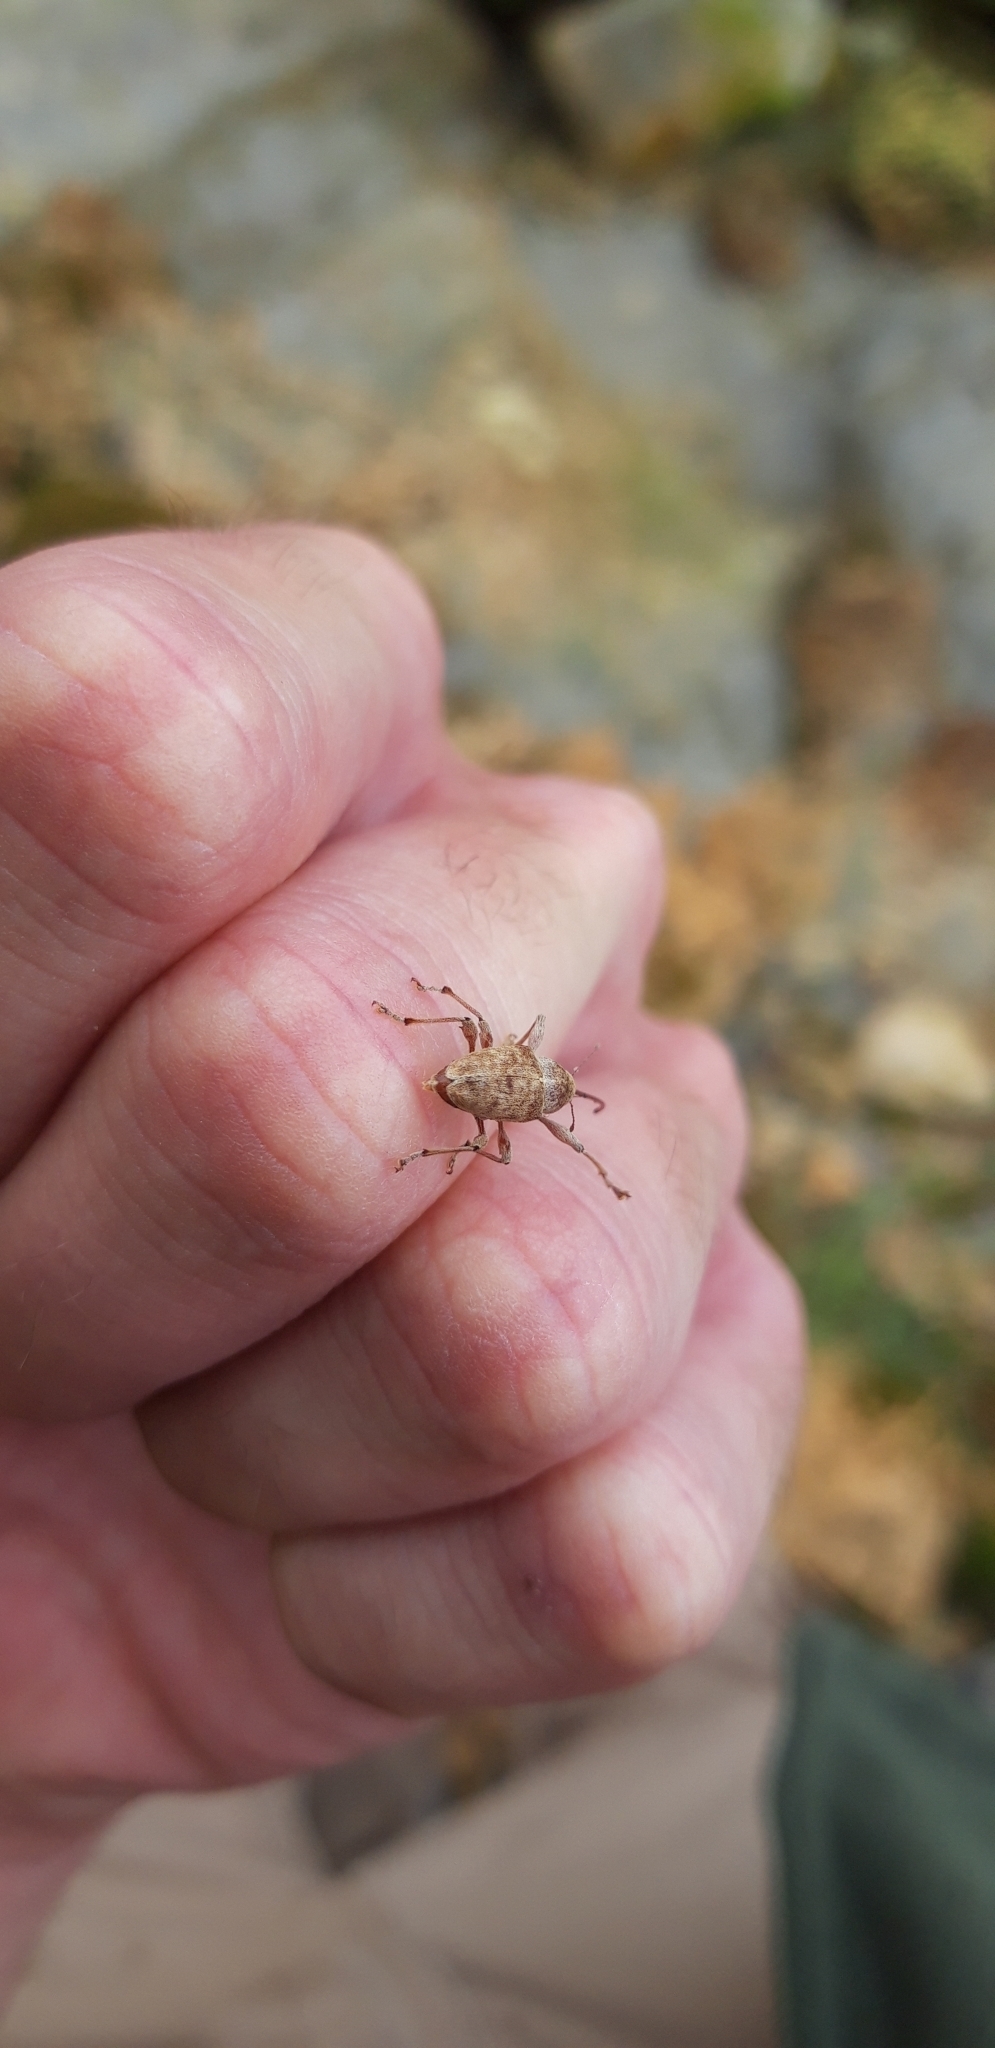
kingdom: Animalia
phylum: Arthropoda
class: Insecta
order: Coleoptera
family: Curculionidae
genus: Curculio
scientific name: Curculio elephas
